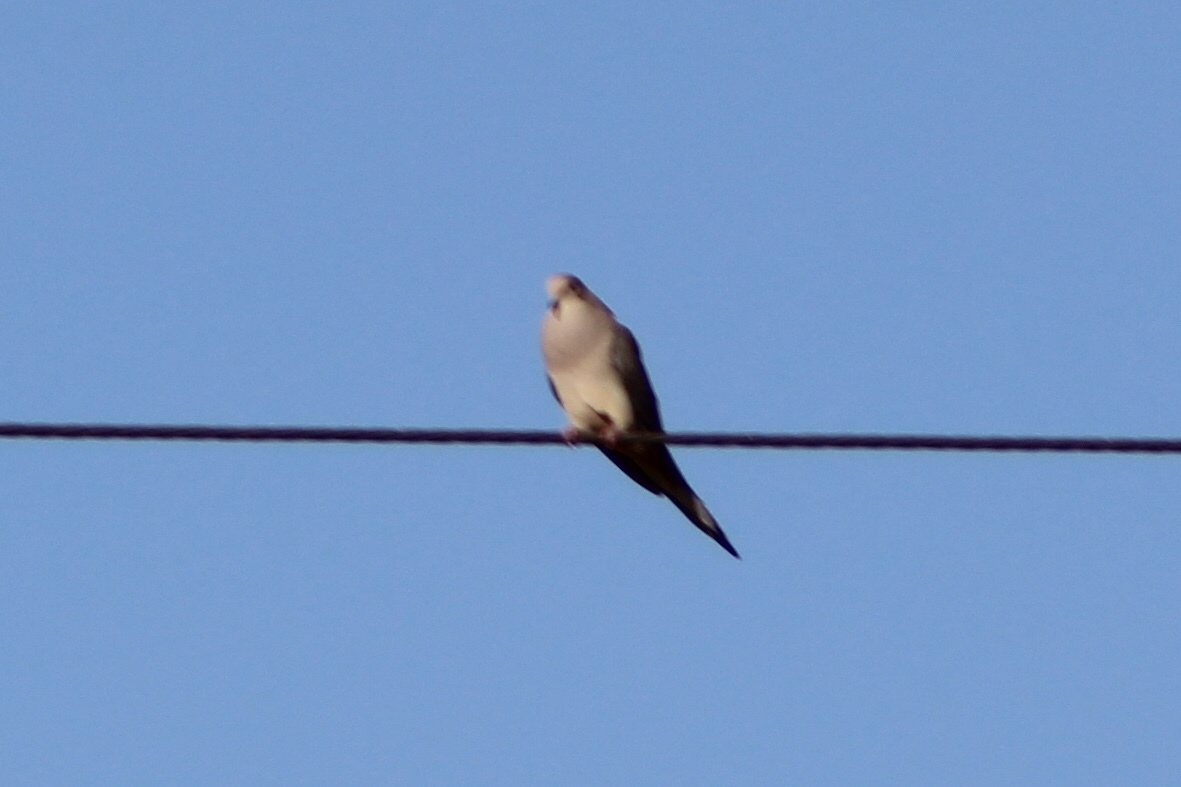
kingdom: Animalia
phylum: Chordata
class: Aves
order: Columbiformes
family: Columbidae
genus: Zenaida
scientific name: Zenaida macroura
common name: Mourning dove
